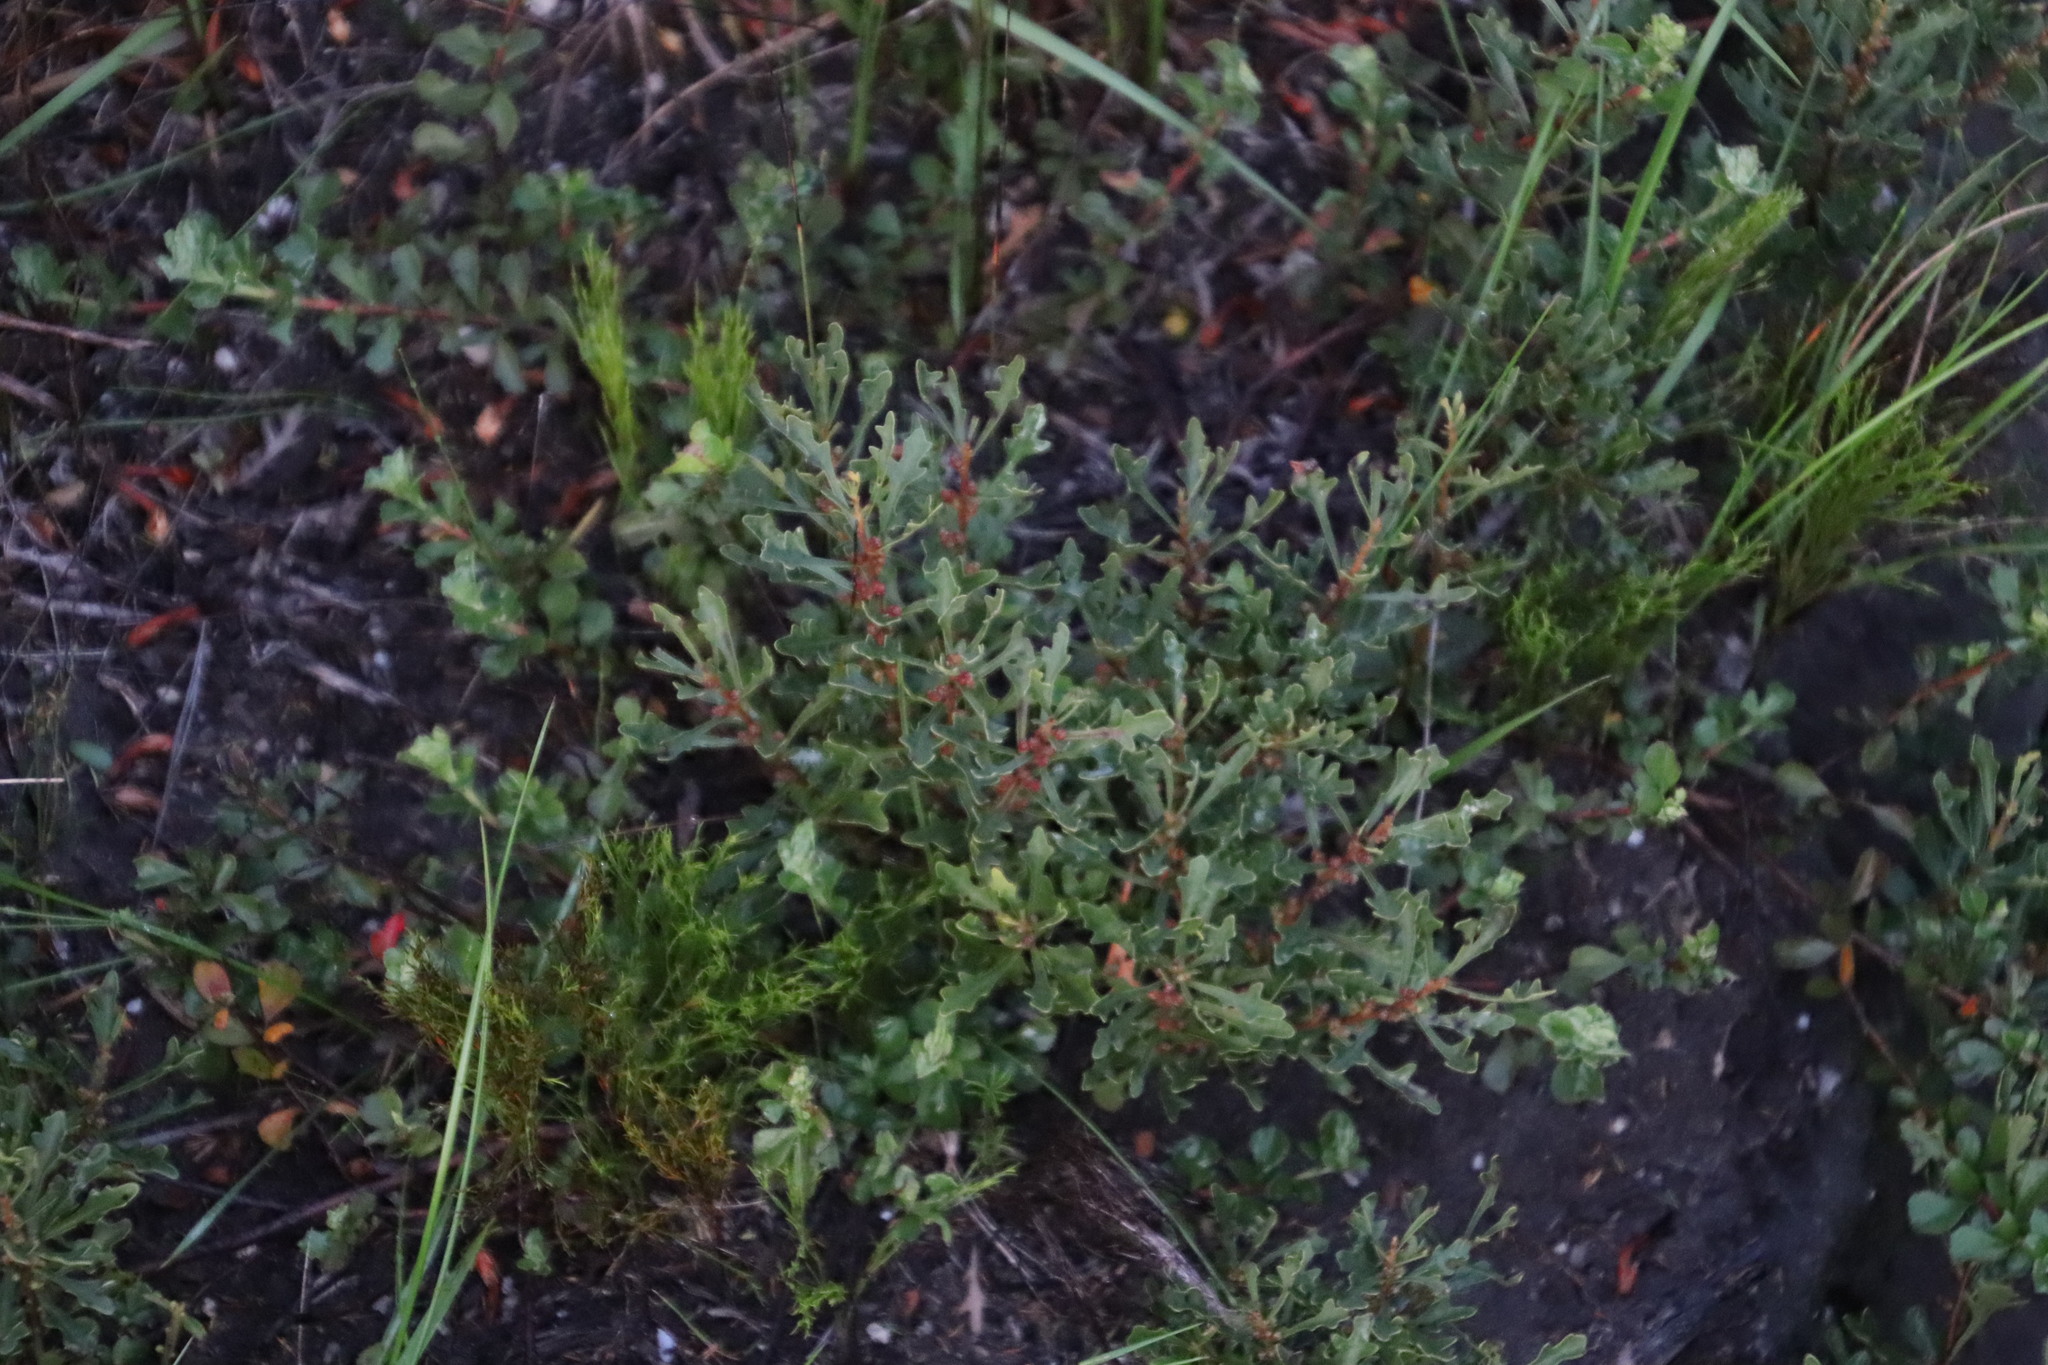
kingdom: Plantae
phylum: Tracheophyta
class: Magnoliopsida
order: Fagales
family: Myricaceae
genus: Morella
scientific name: Morella quercifolia
